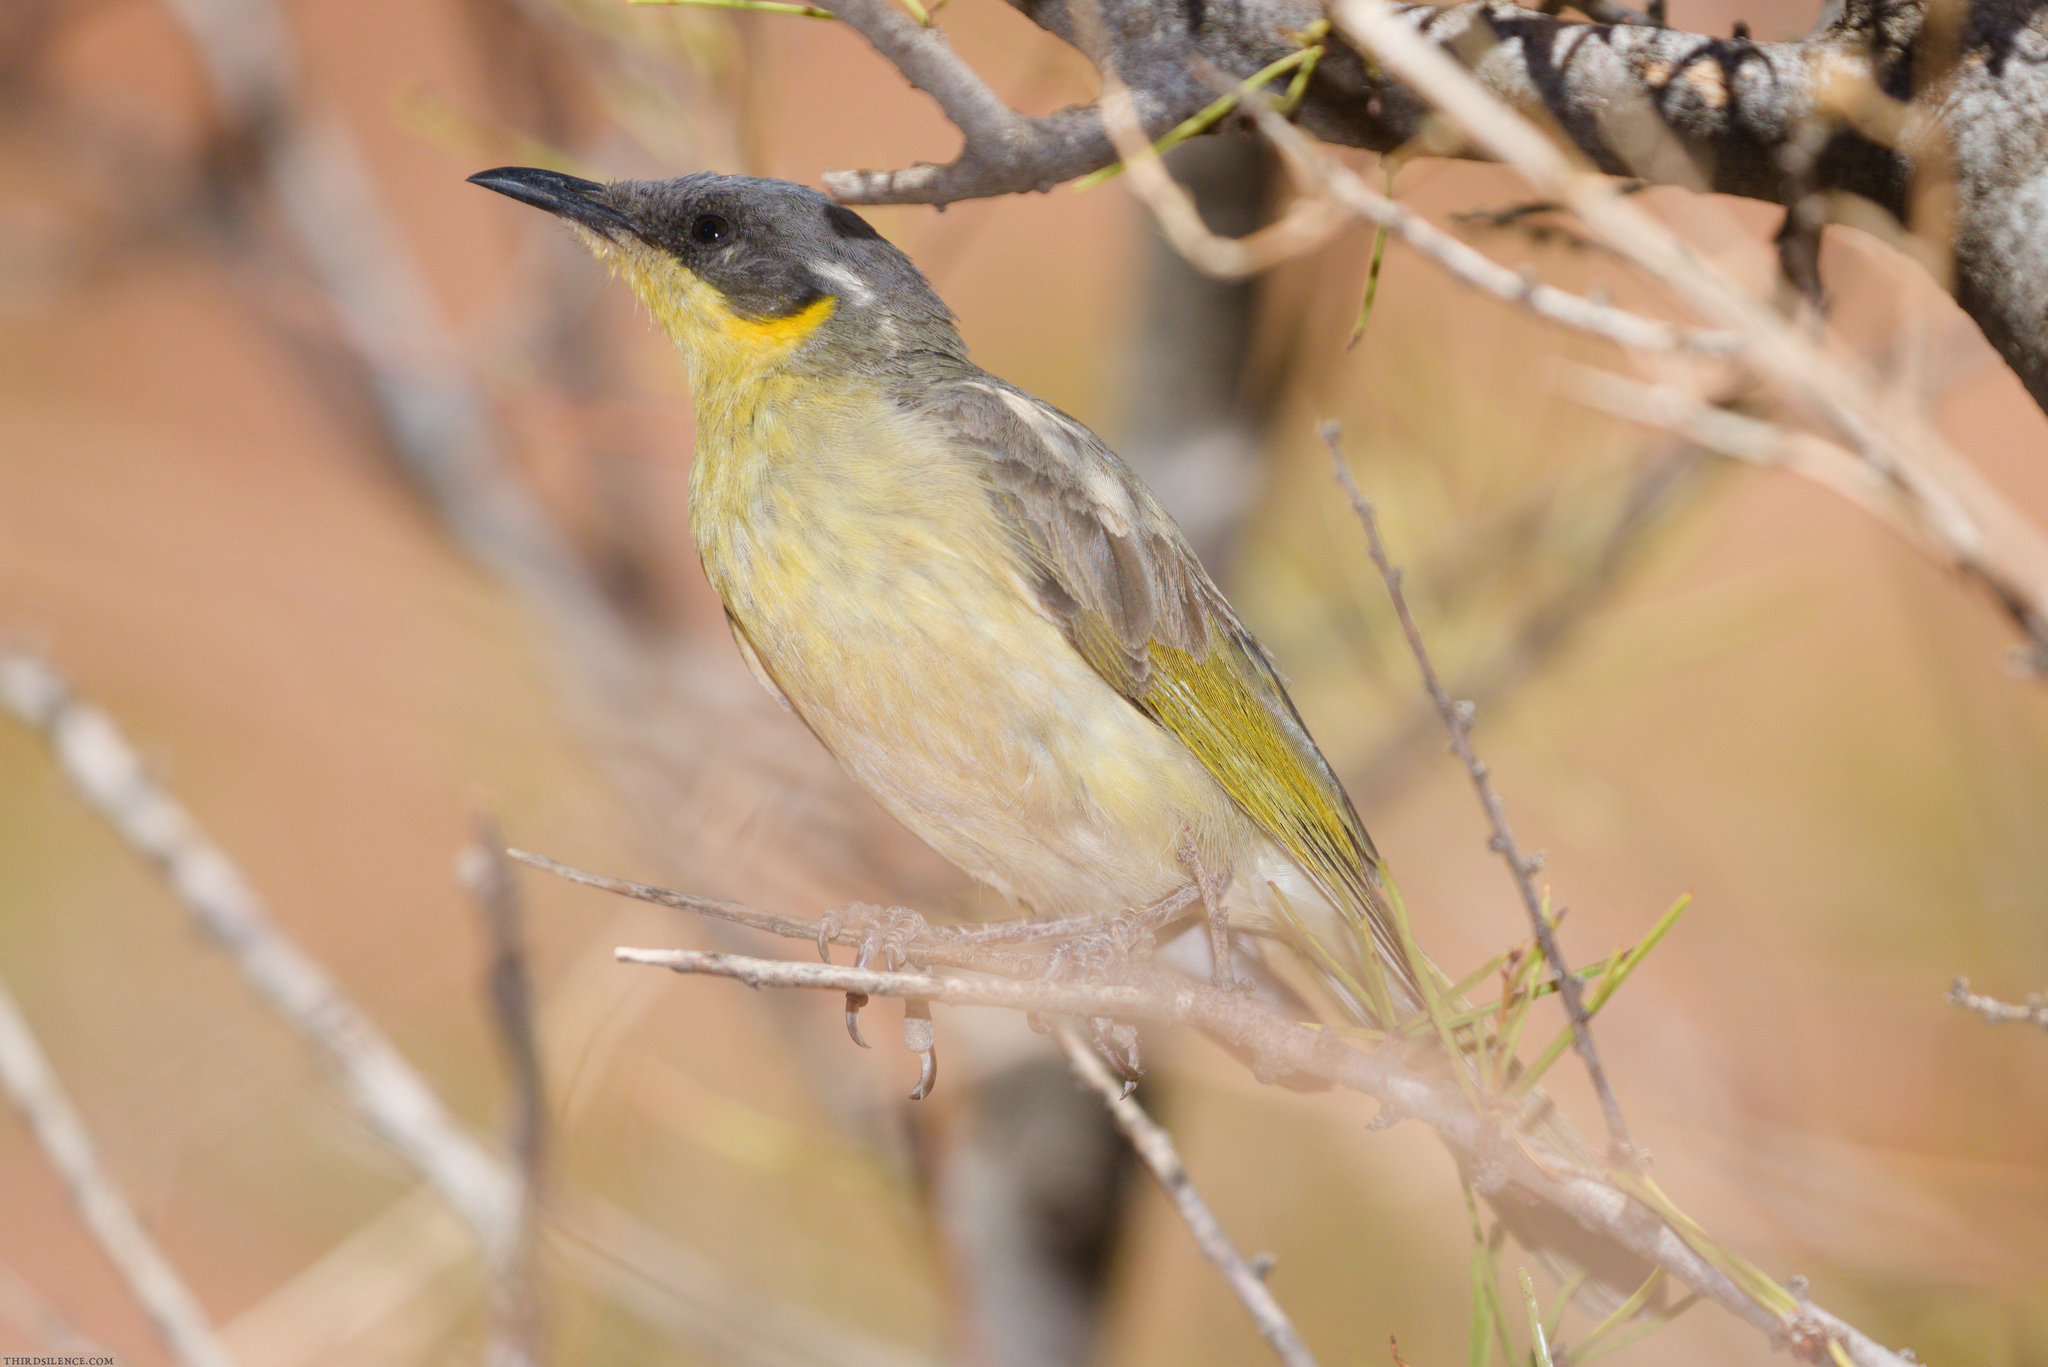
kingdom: Animalia
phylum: Chordata
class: Aves
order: Passeriformes
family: Meliphagidae
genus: Ptilotula
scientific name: Ptilotula keartlandi
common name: Grey-headed honeyeater
